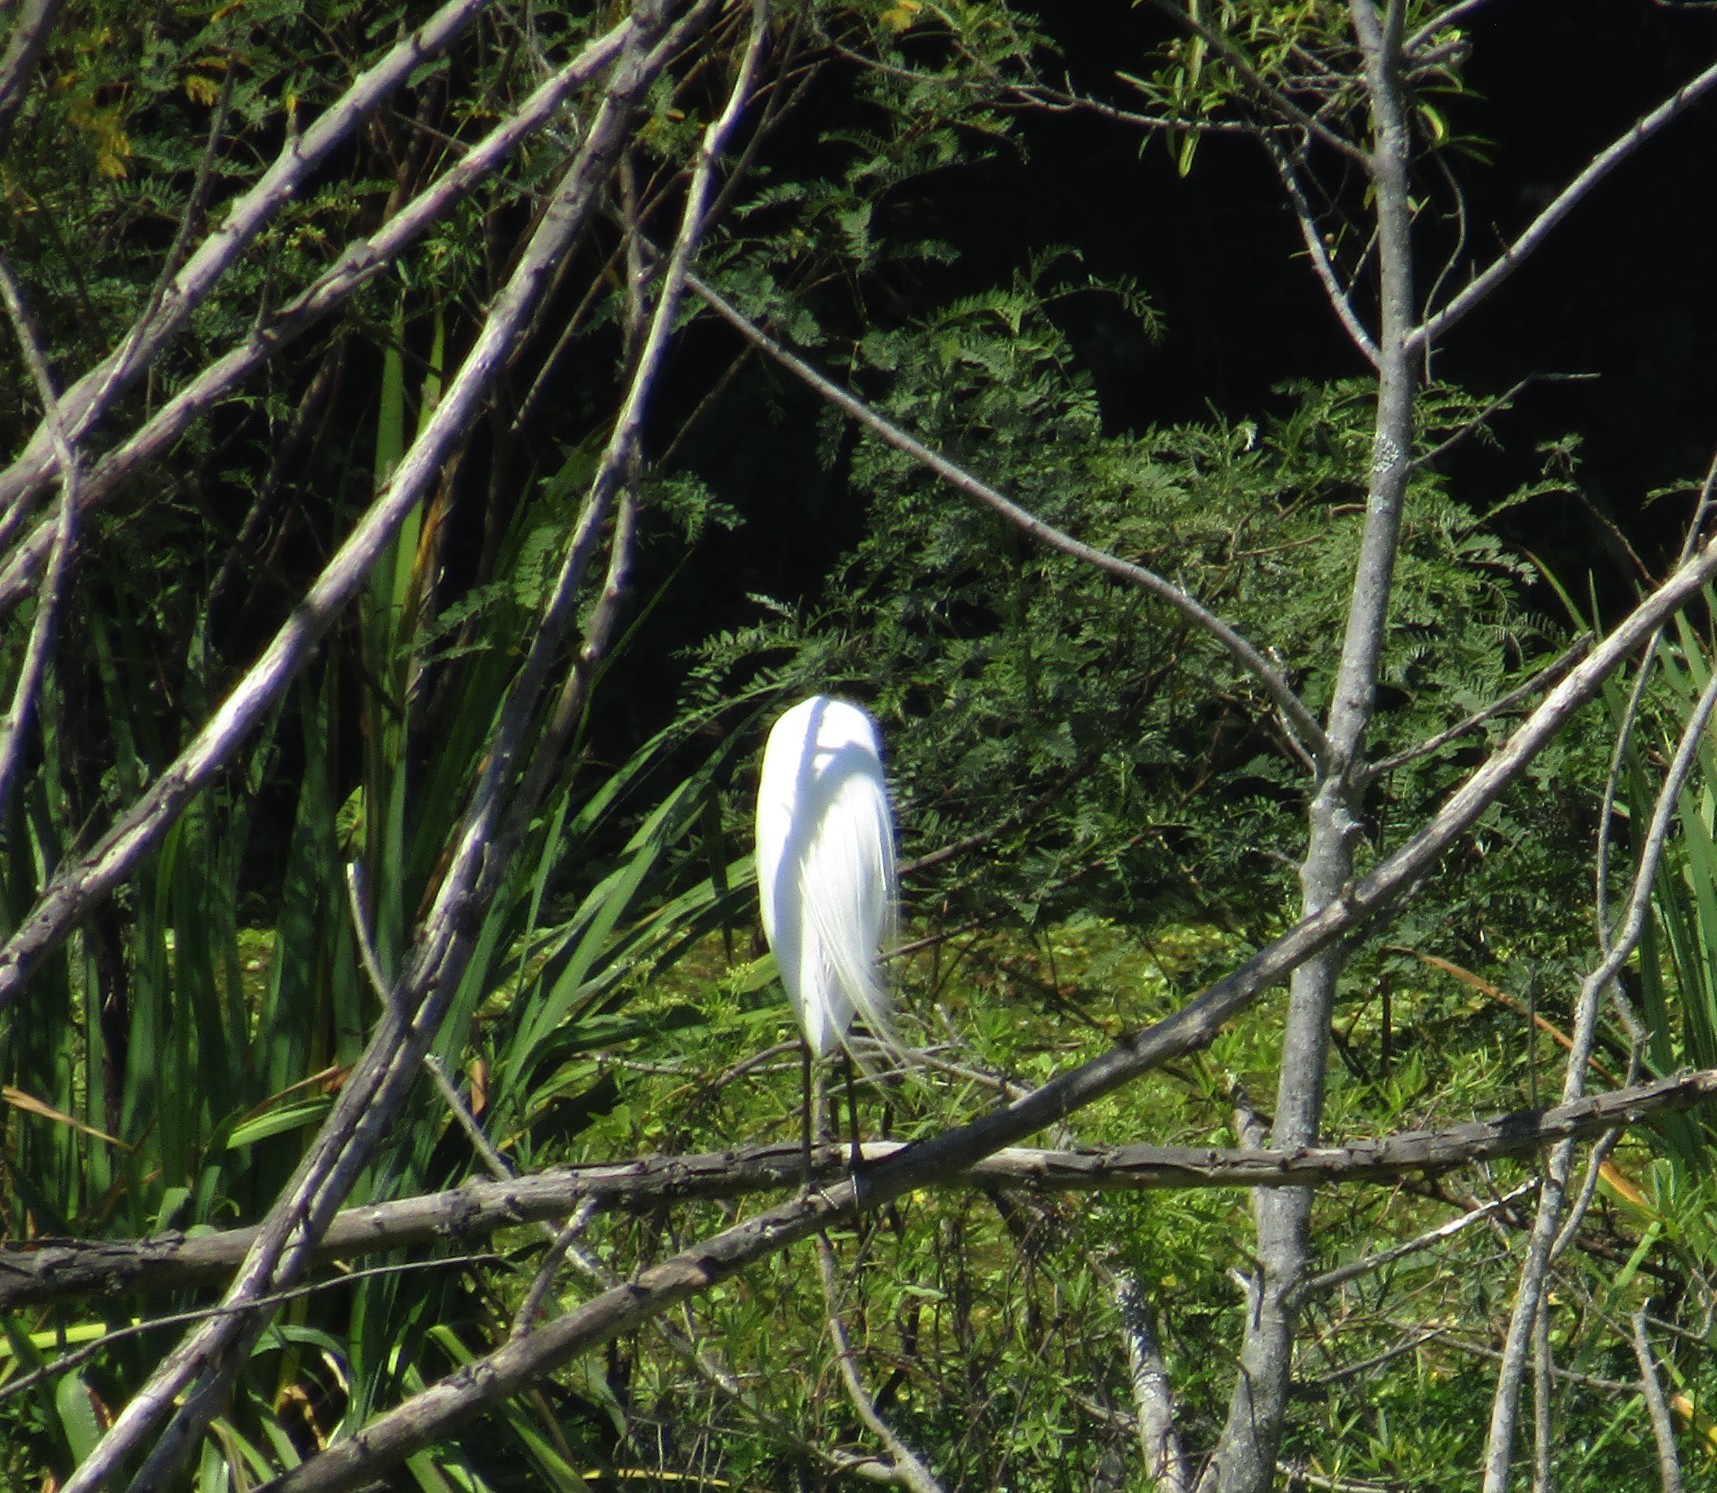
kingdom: Animalia
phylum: Chordata
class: Aves
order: Pelecaniformes
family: Ardeidae
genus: Ardea
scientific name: Ardea alba
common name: Great egret
